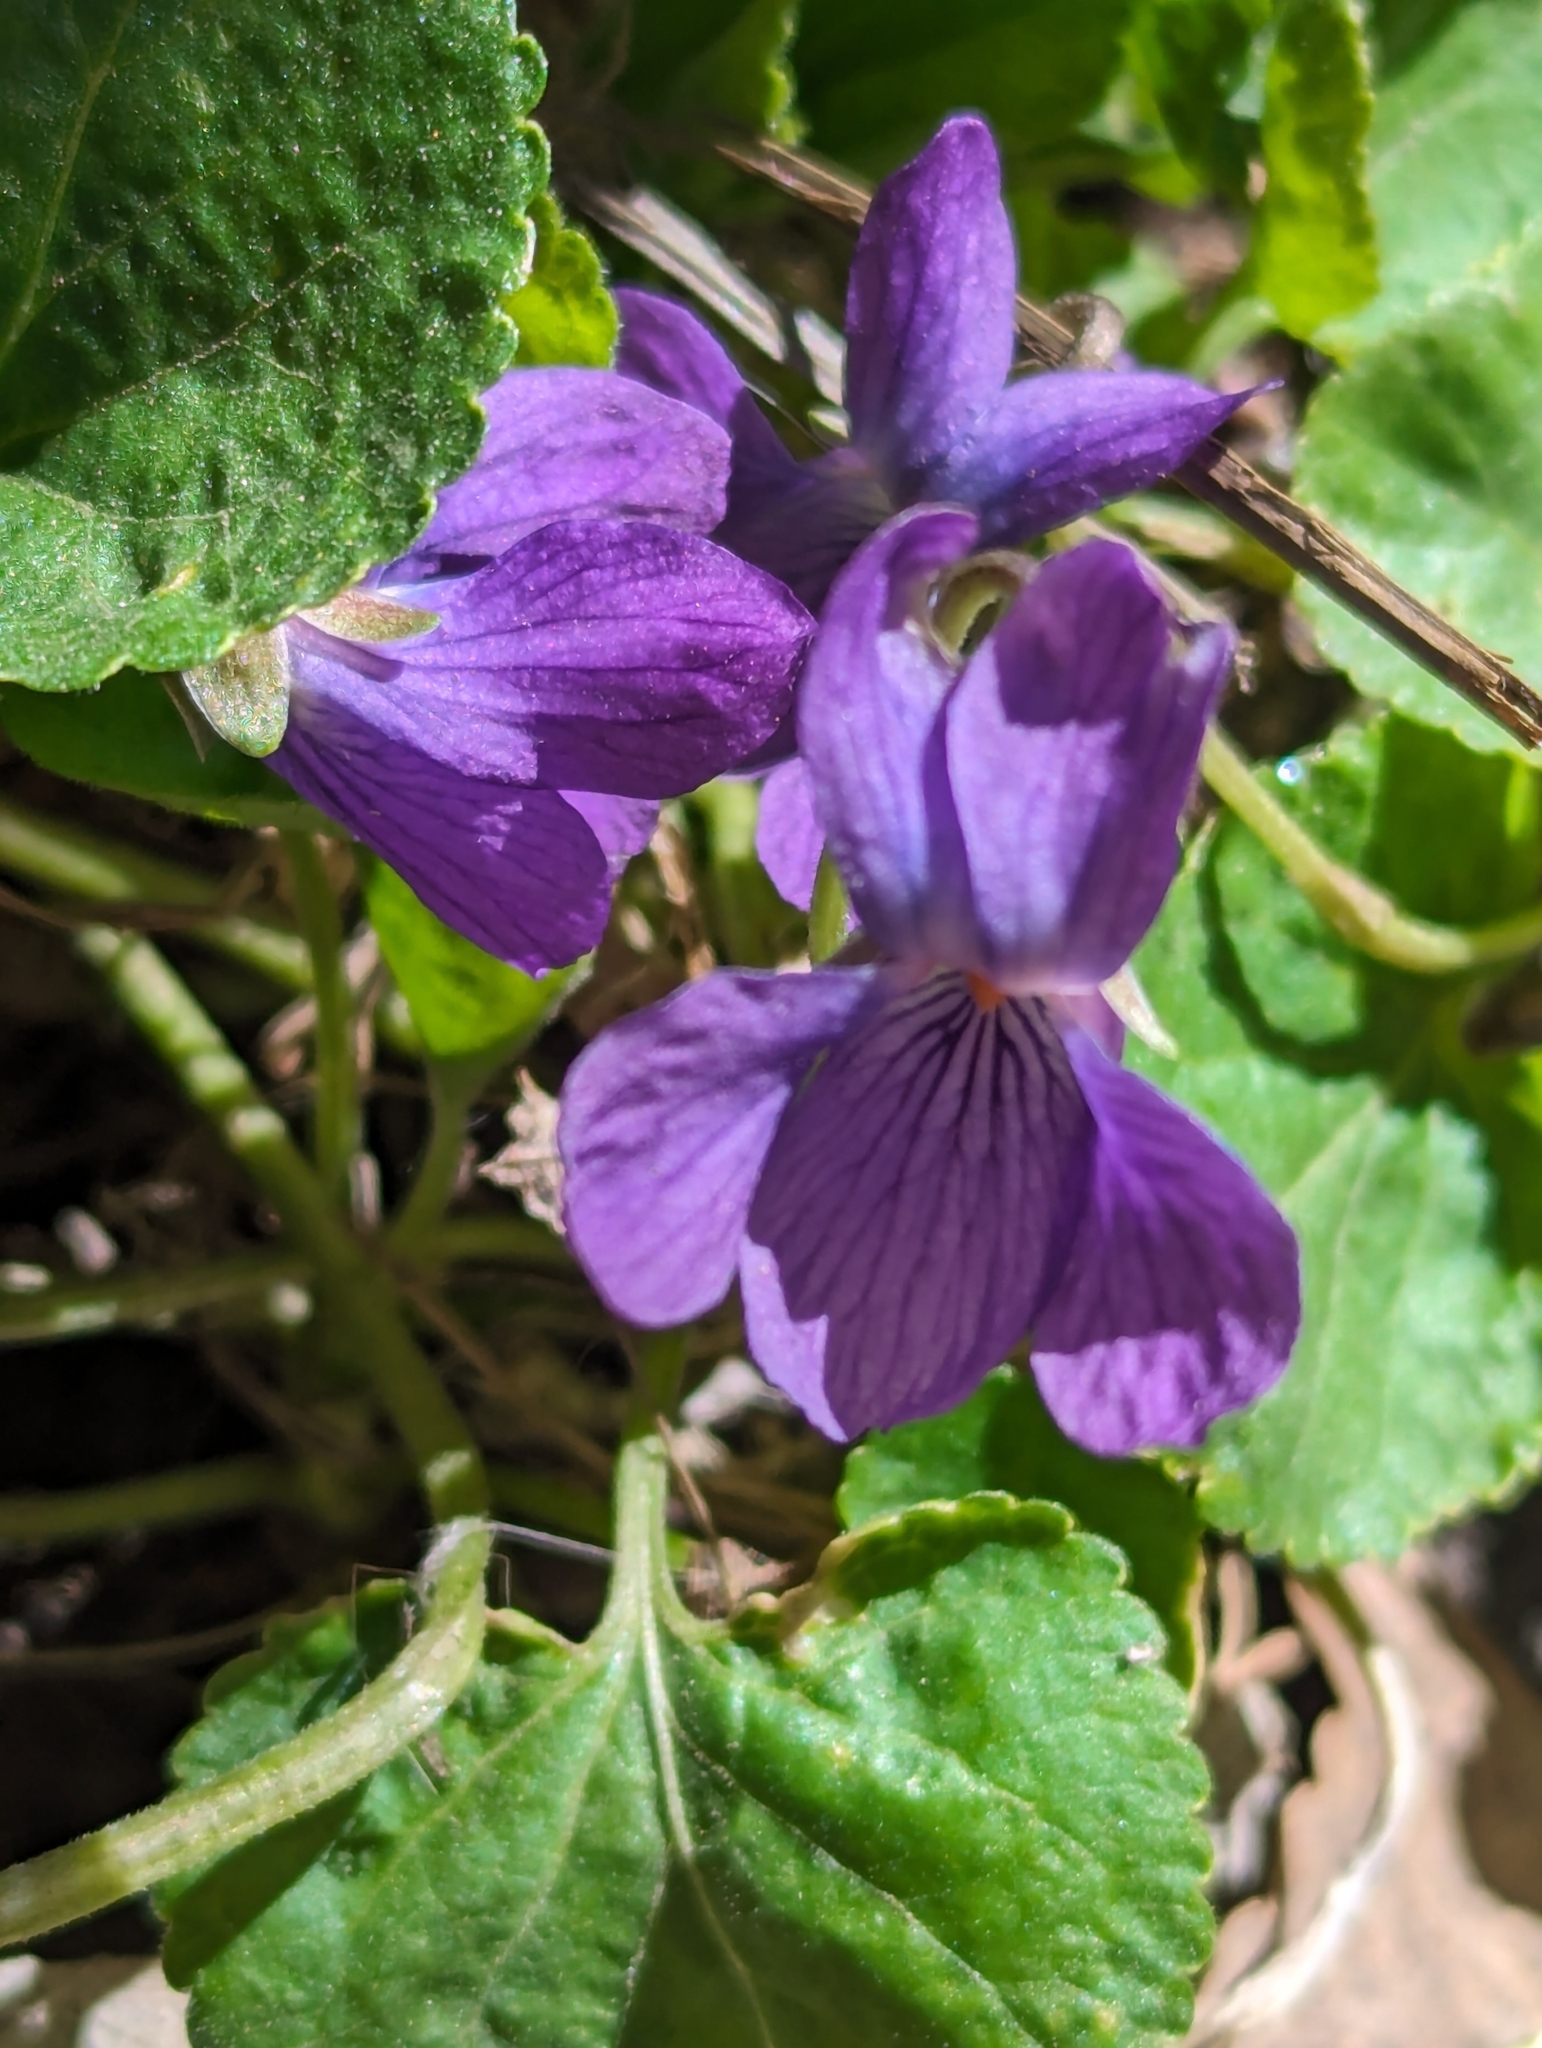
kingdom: Plantae
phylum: Tracheophyta
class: Magnoliopsida
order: Malpighiales
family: Violaceae
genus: Viola
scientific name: Viola odorata
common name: Sweet violet
